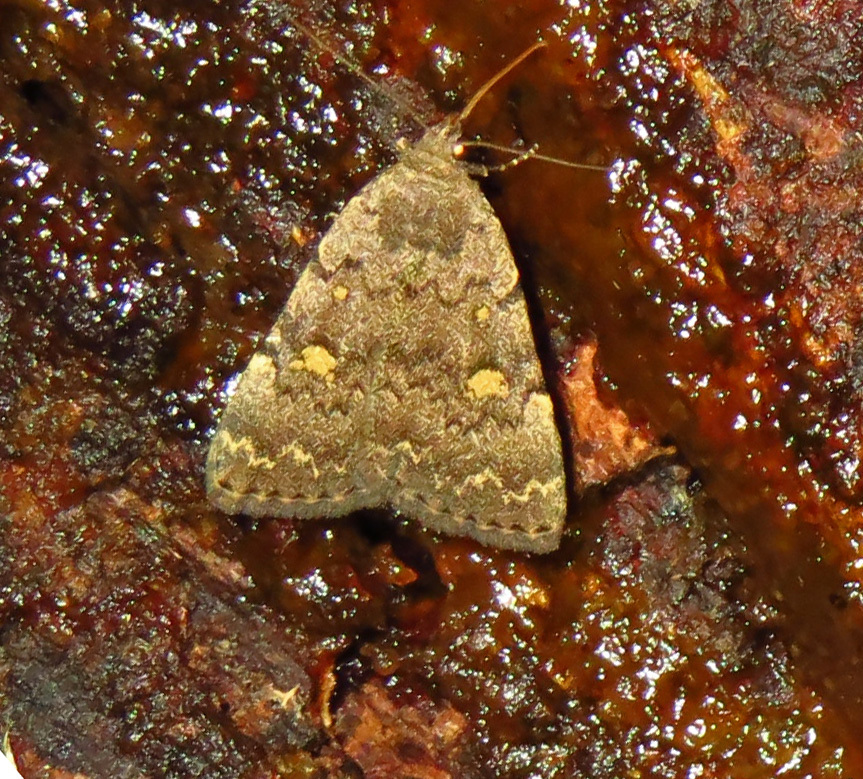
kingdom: Animalia
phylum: Arthropoda
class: Insecta
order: Lepidoptera
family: Erebidae
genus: Idia
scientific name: Idia aemula
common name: Common idia moth
